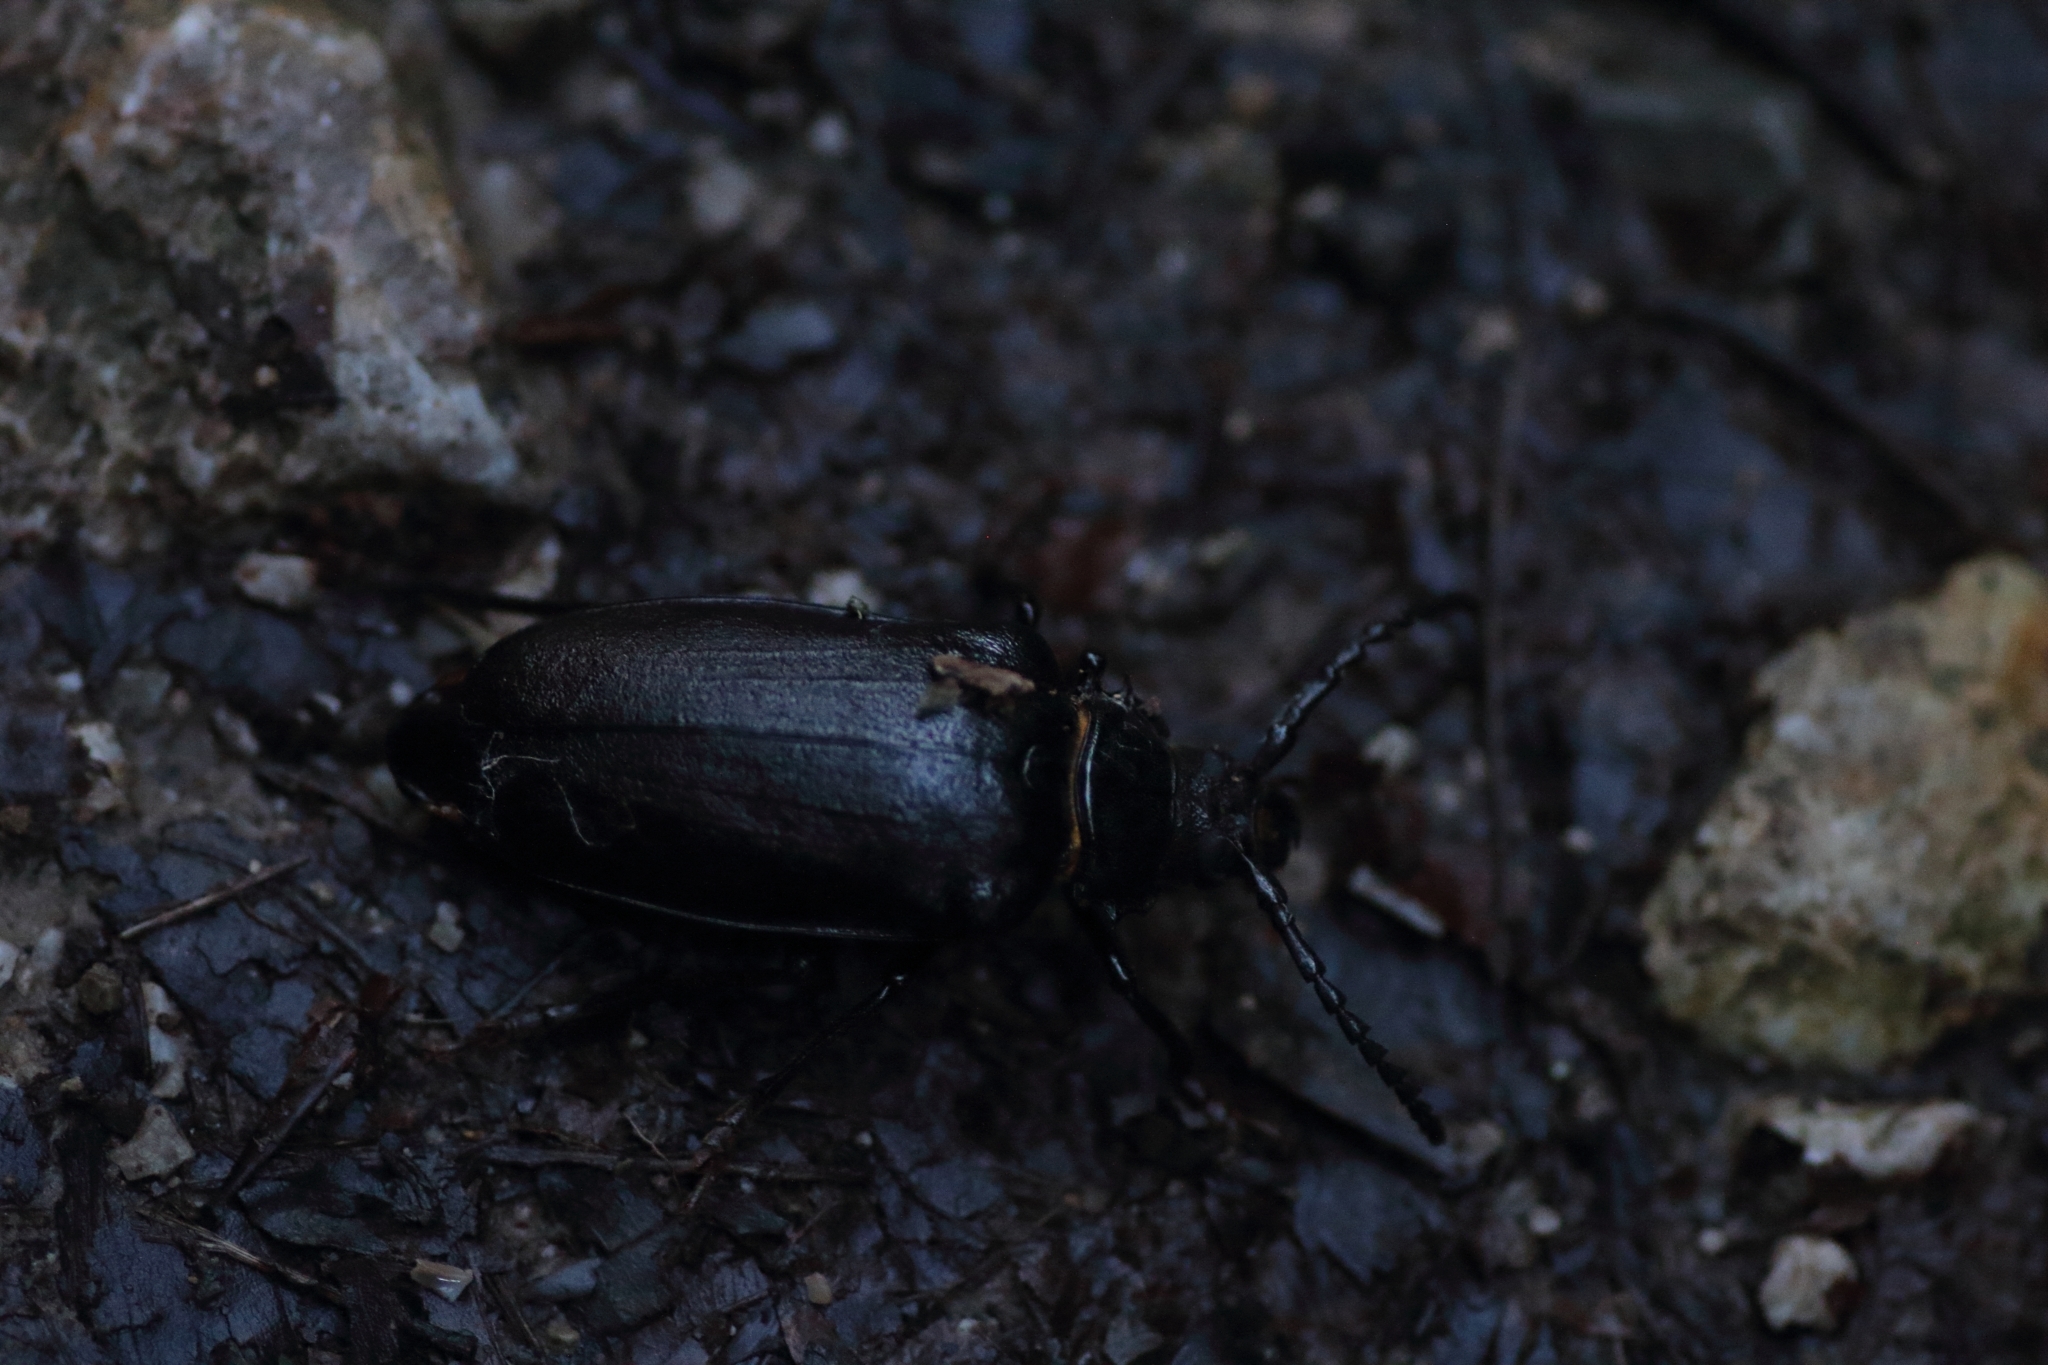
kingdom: Animalia
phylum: Arthropoda
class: Insecta
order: Coleoptera
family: Cerambycidae
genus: Prionus
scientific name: Prionus coriarius
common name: Tanner beetle
